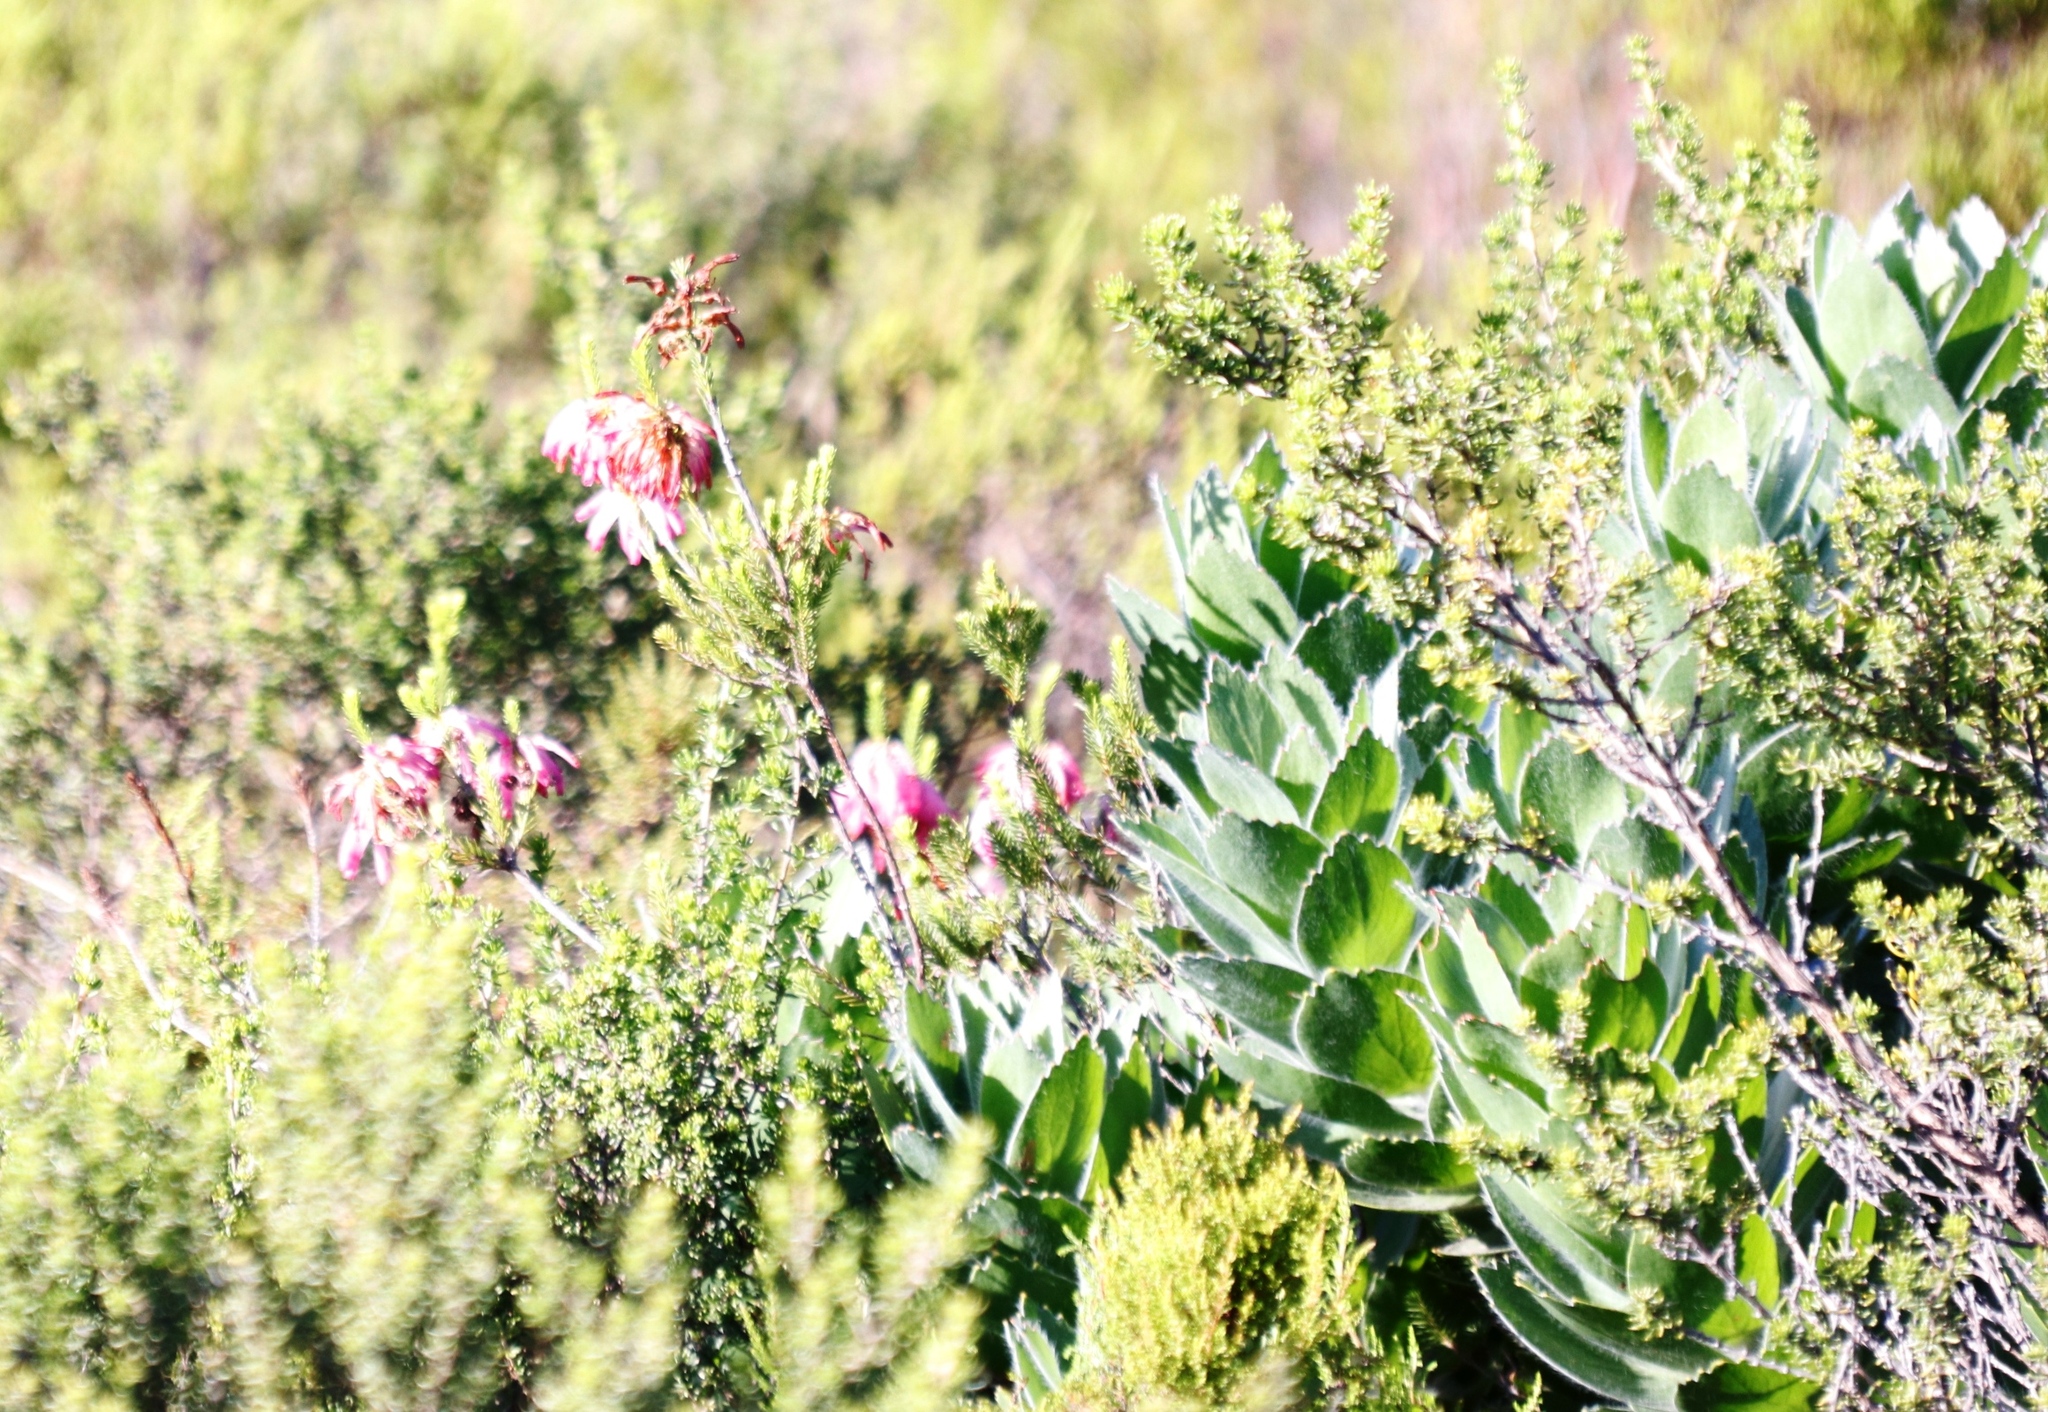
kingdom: Plantae
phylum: Tracheophyta
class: Magnoliopsida
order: Ericales
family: Ericaceae
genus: Erica
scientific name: Erica mammosa
